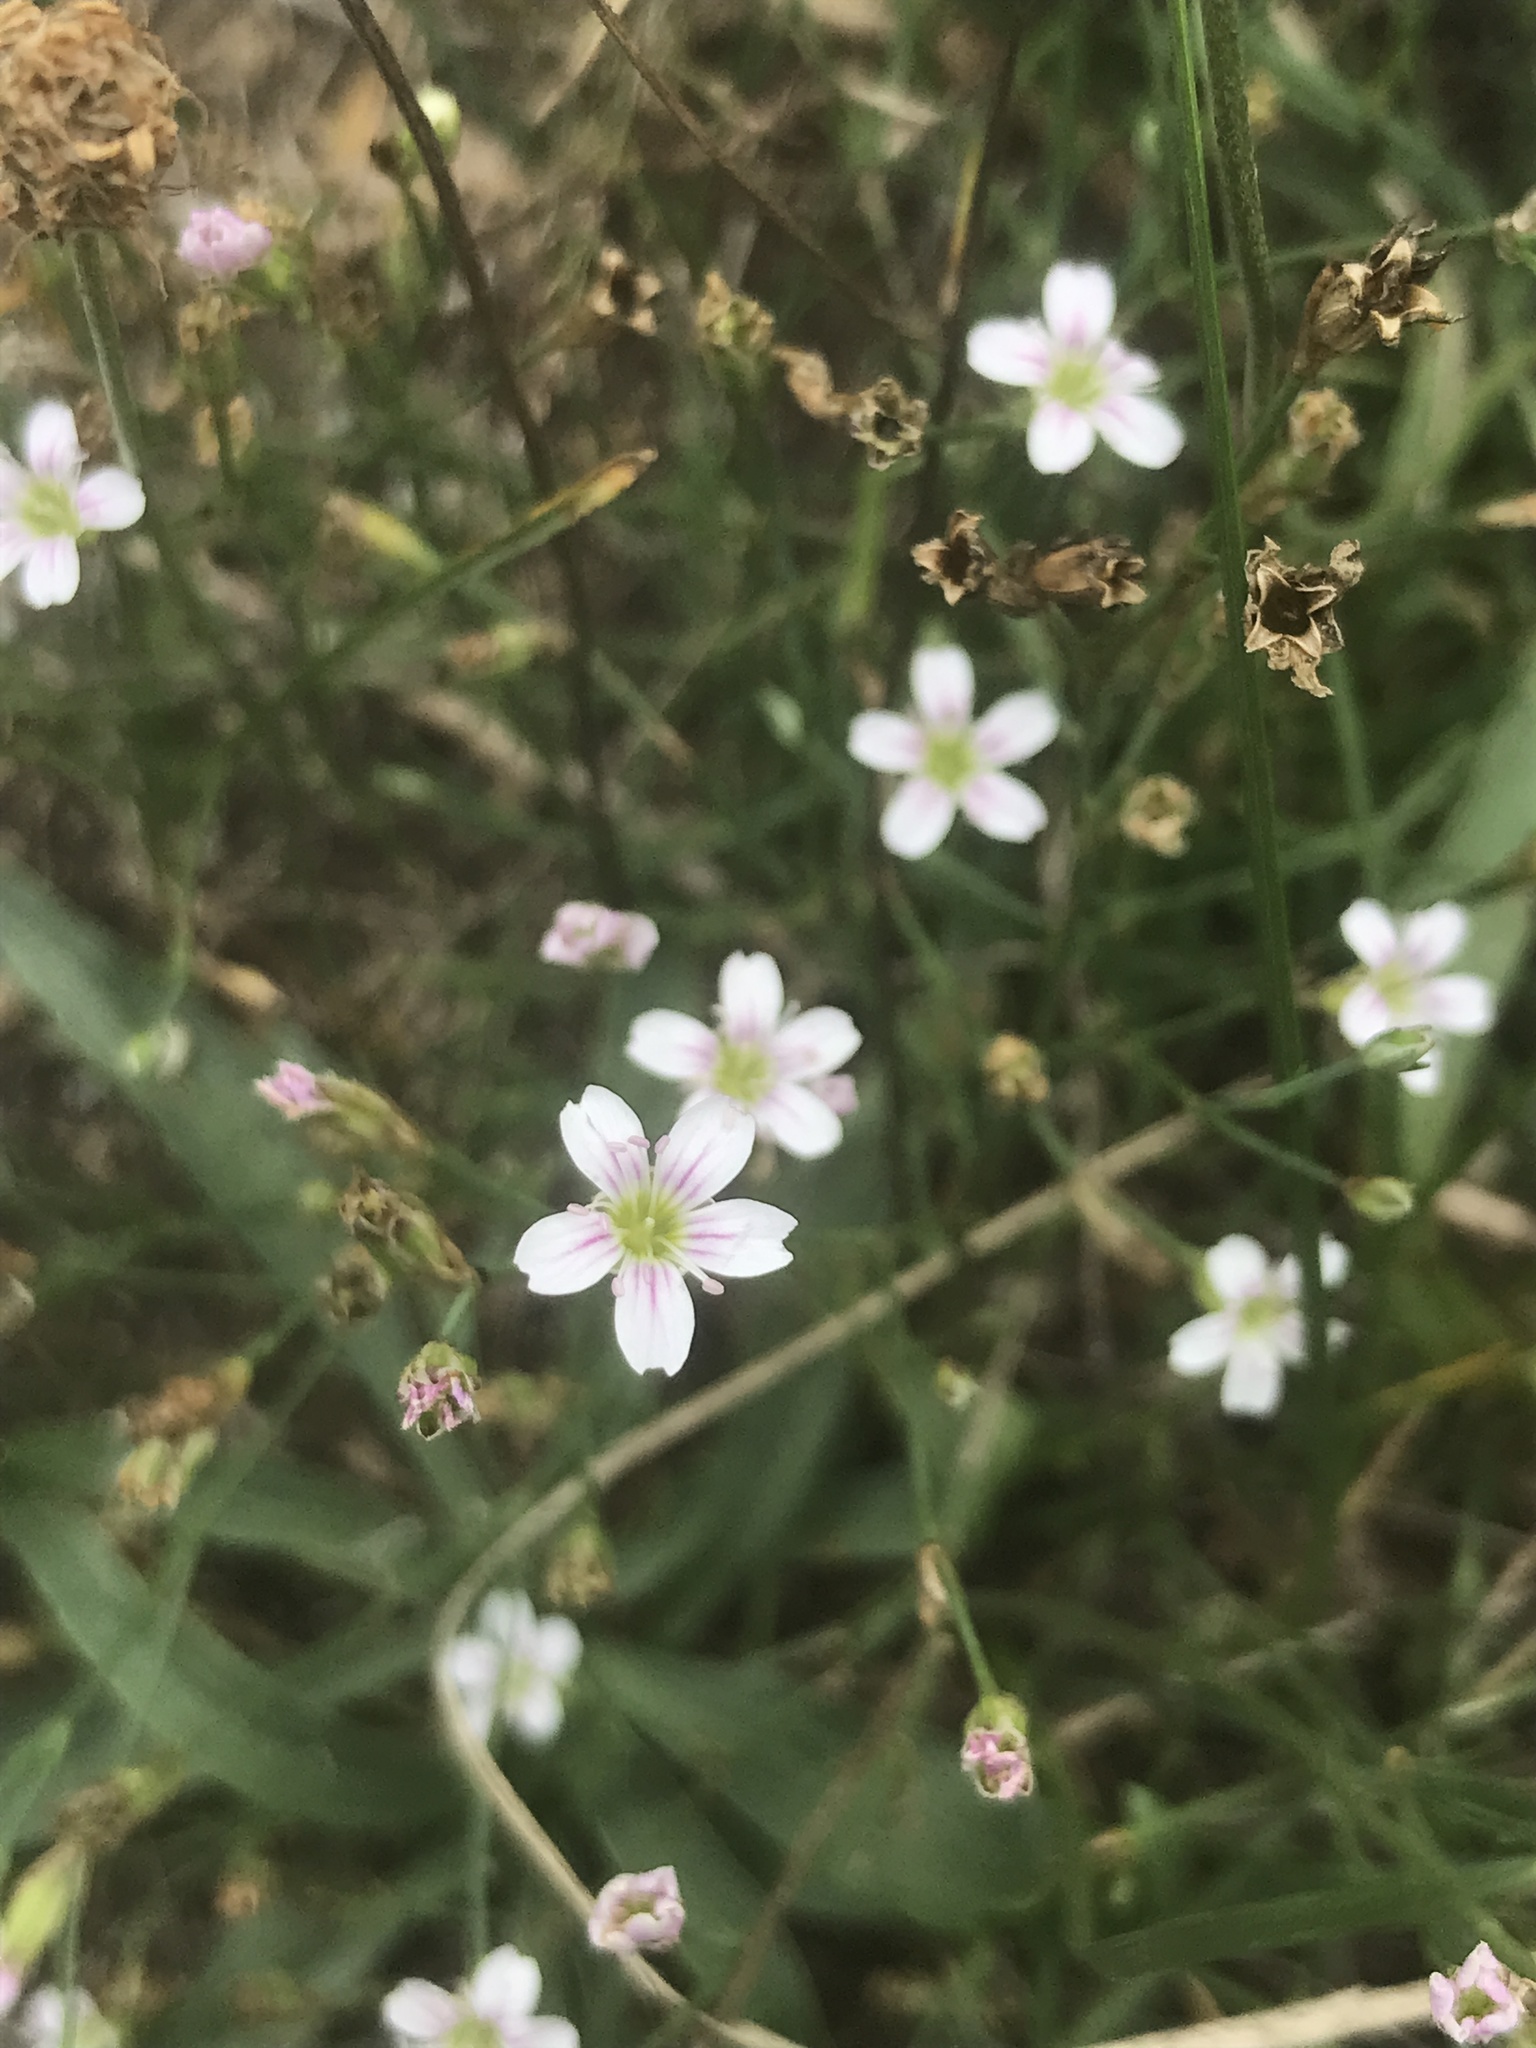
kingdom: Plantae
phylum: Tracheophyta
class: Magnoliopsida
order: Caryophyllales
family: Caryophyllaceae
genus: Petrorhagia
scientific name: Petrorhagia saxifraga
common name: Tunicflower
